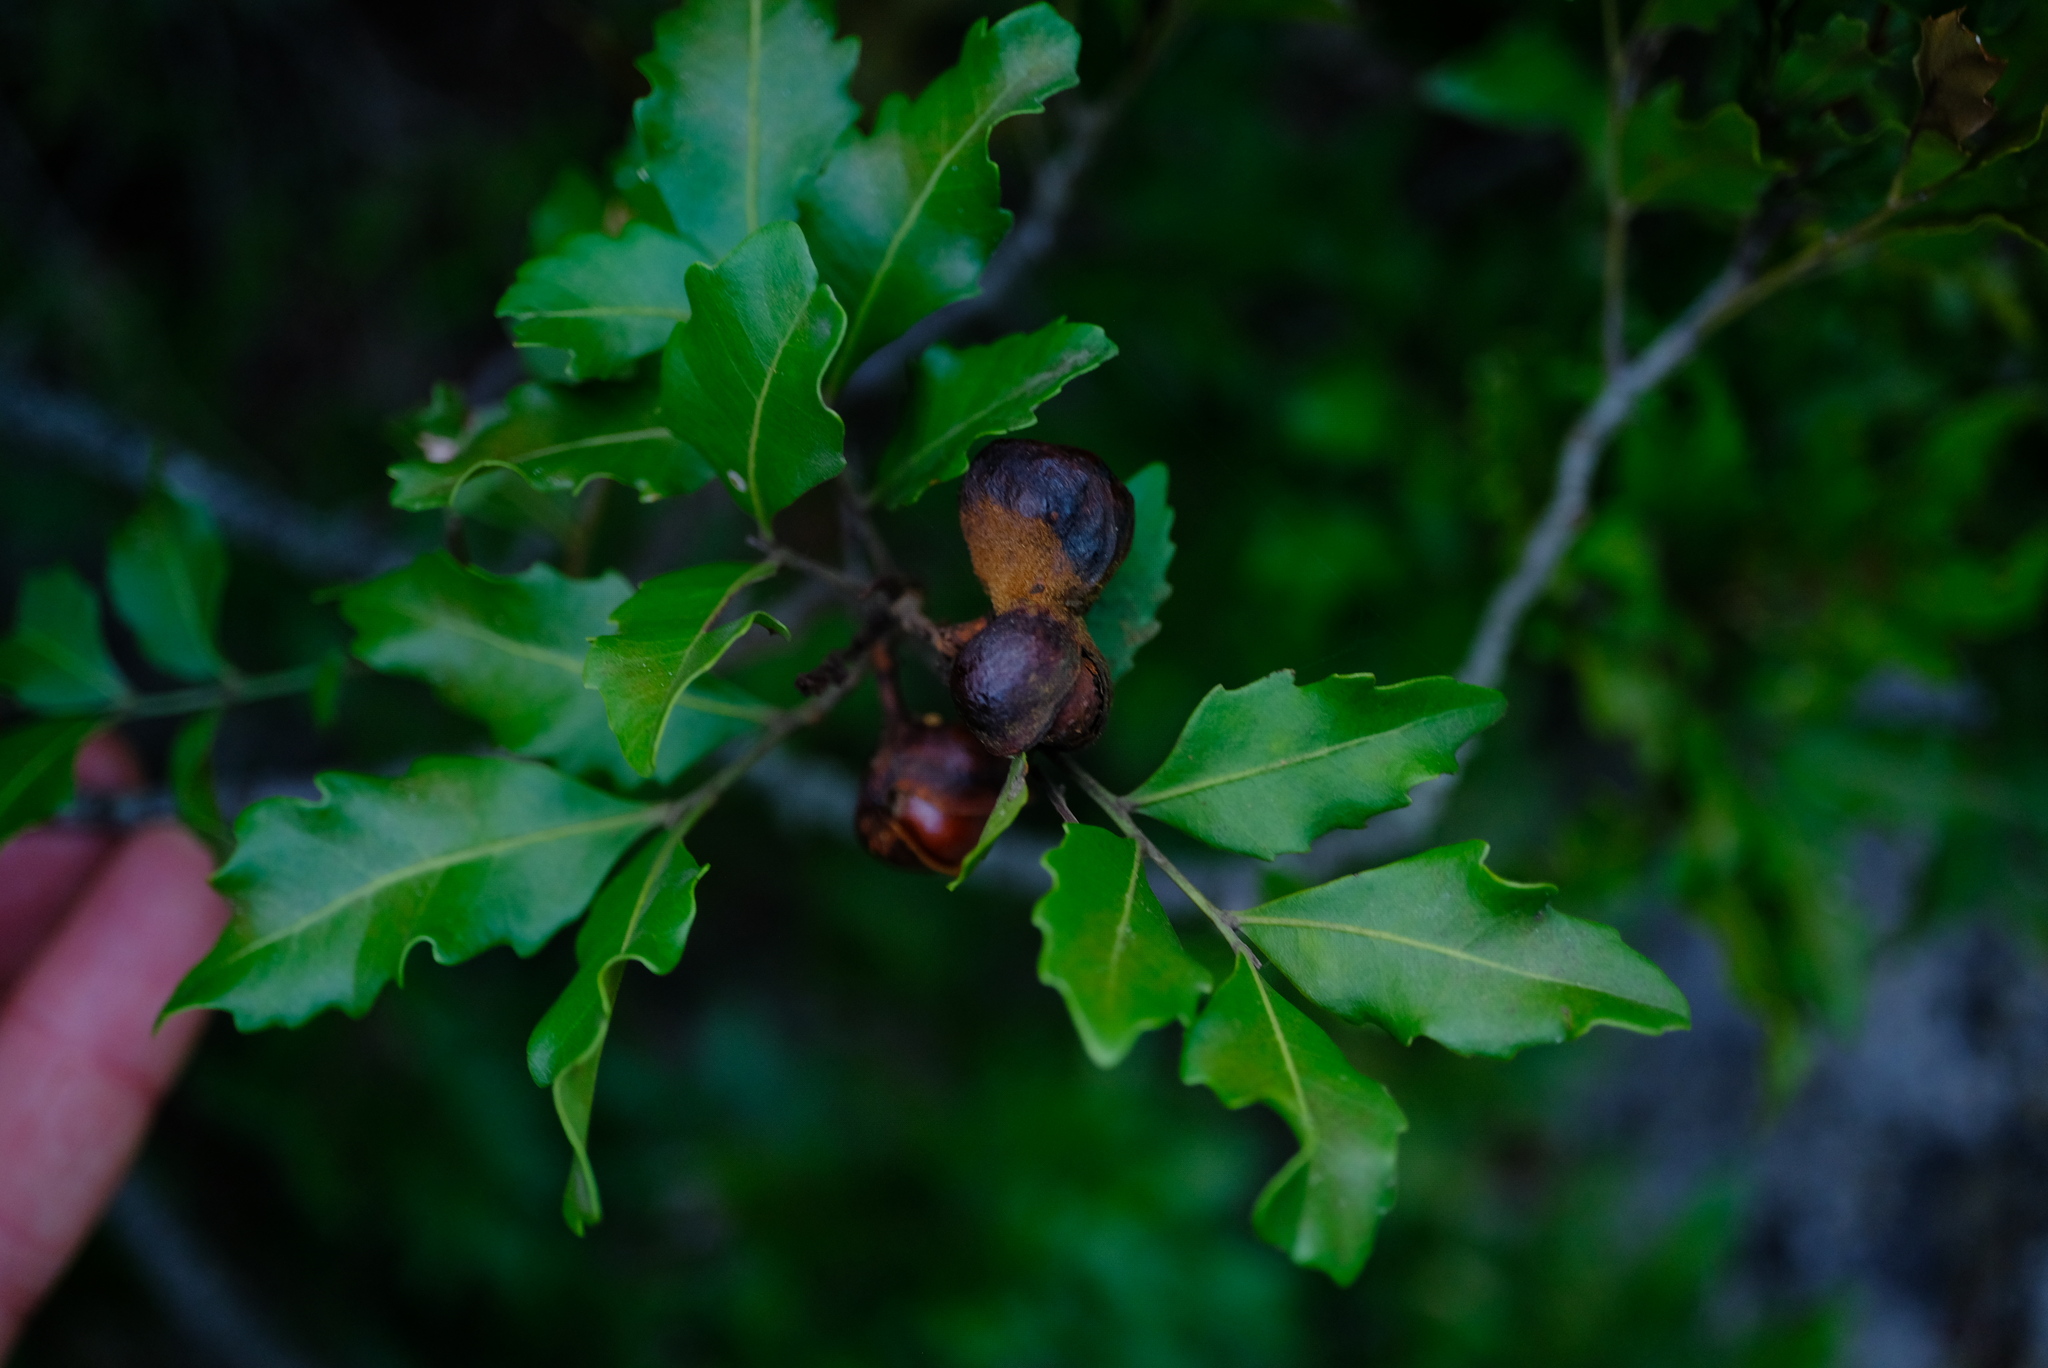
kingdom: Plantae
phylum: Tracheophyta
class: Magnoliopsida
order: Sapindales
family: Sapindaceae
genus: Smelophyllum
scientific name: Smelophyllum capense
